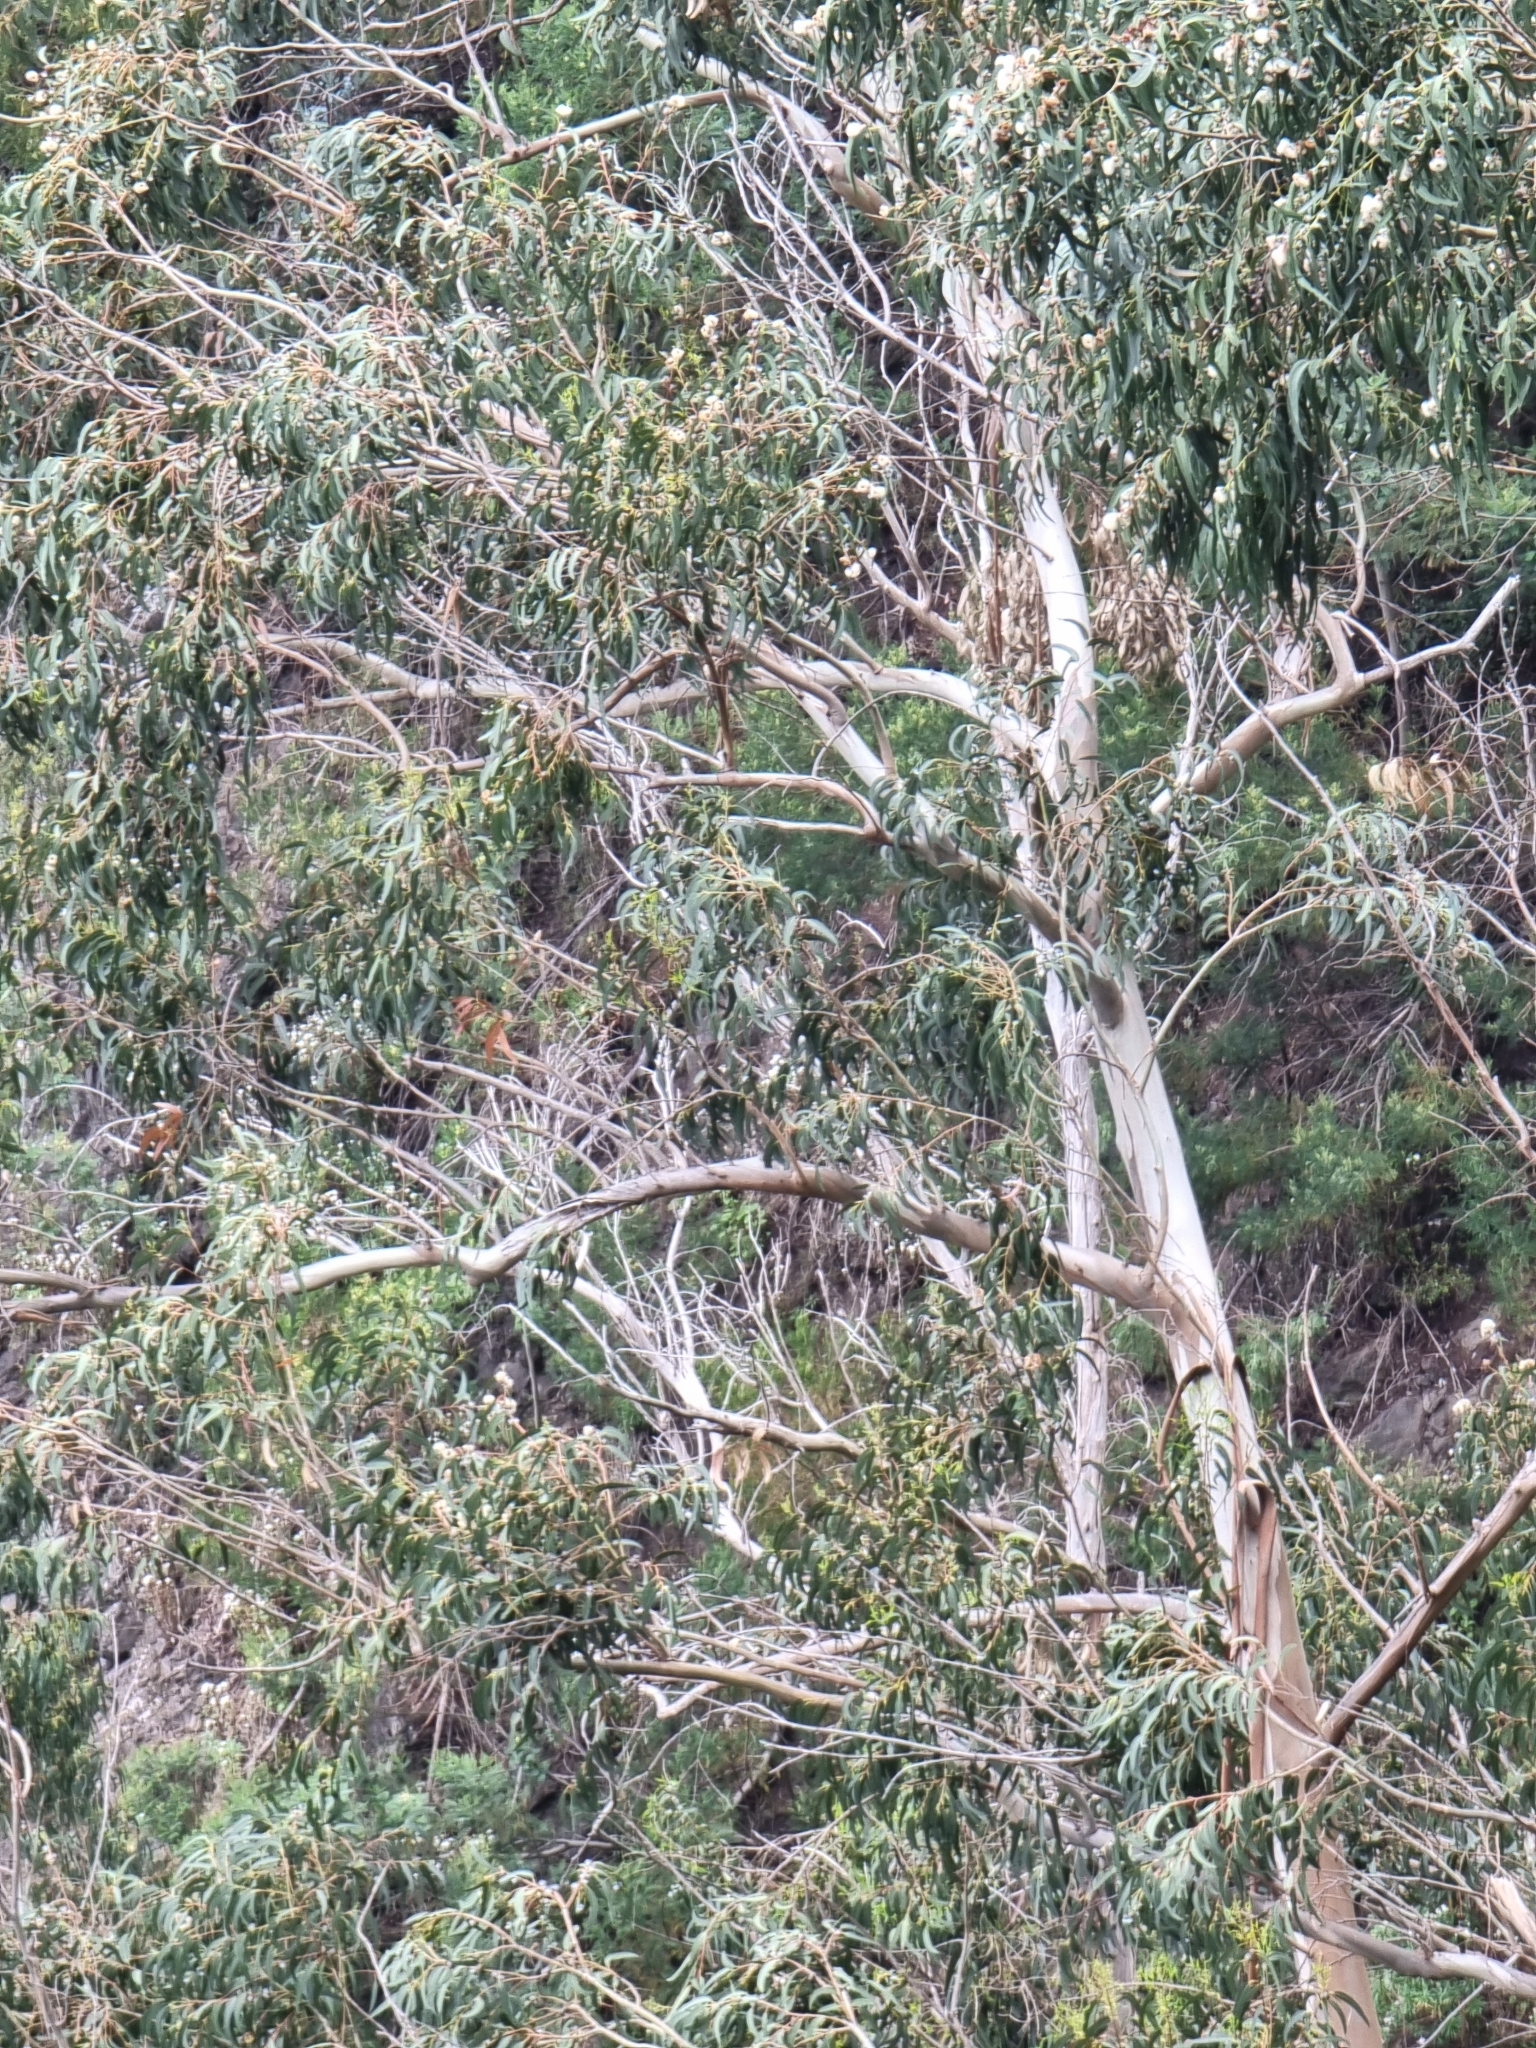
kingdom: Plantae
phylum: Tracheophyta
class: Magnoliopsida
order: Myrtales
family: Myrtaceae
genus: Eucalyptus
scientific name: Eucalyptus globulus
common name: Southern blue-gum
